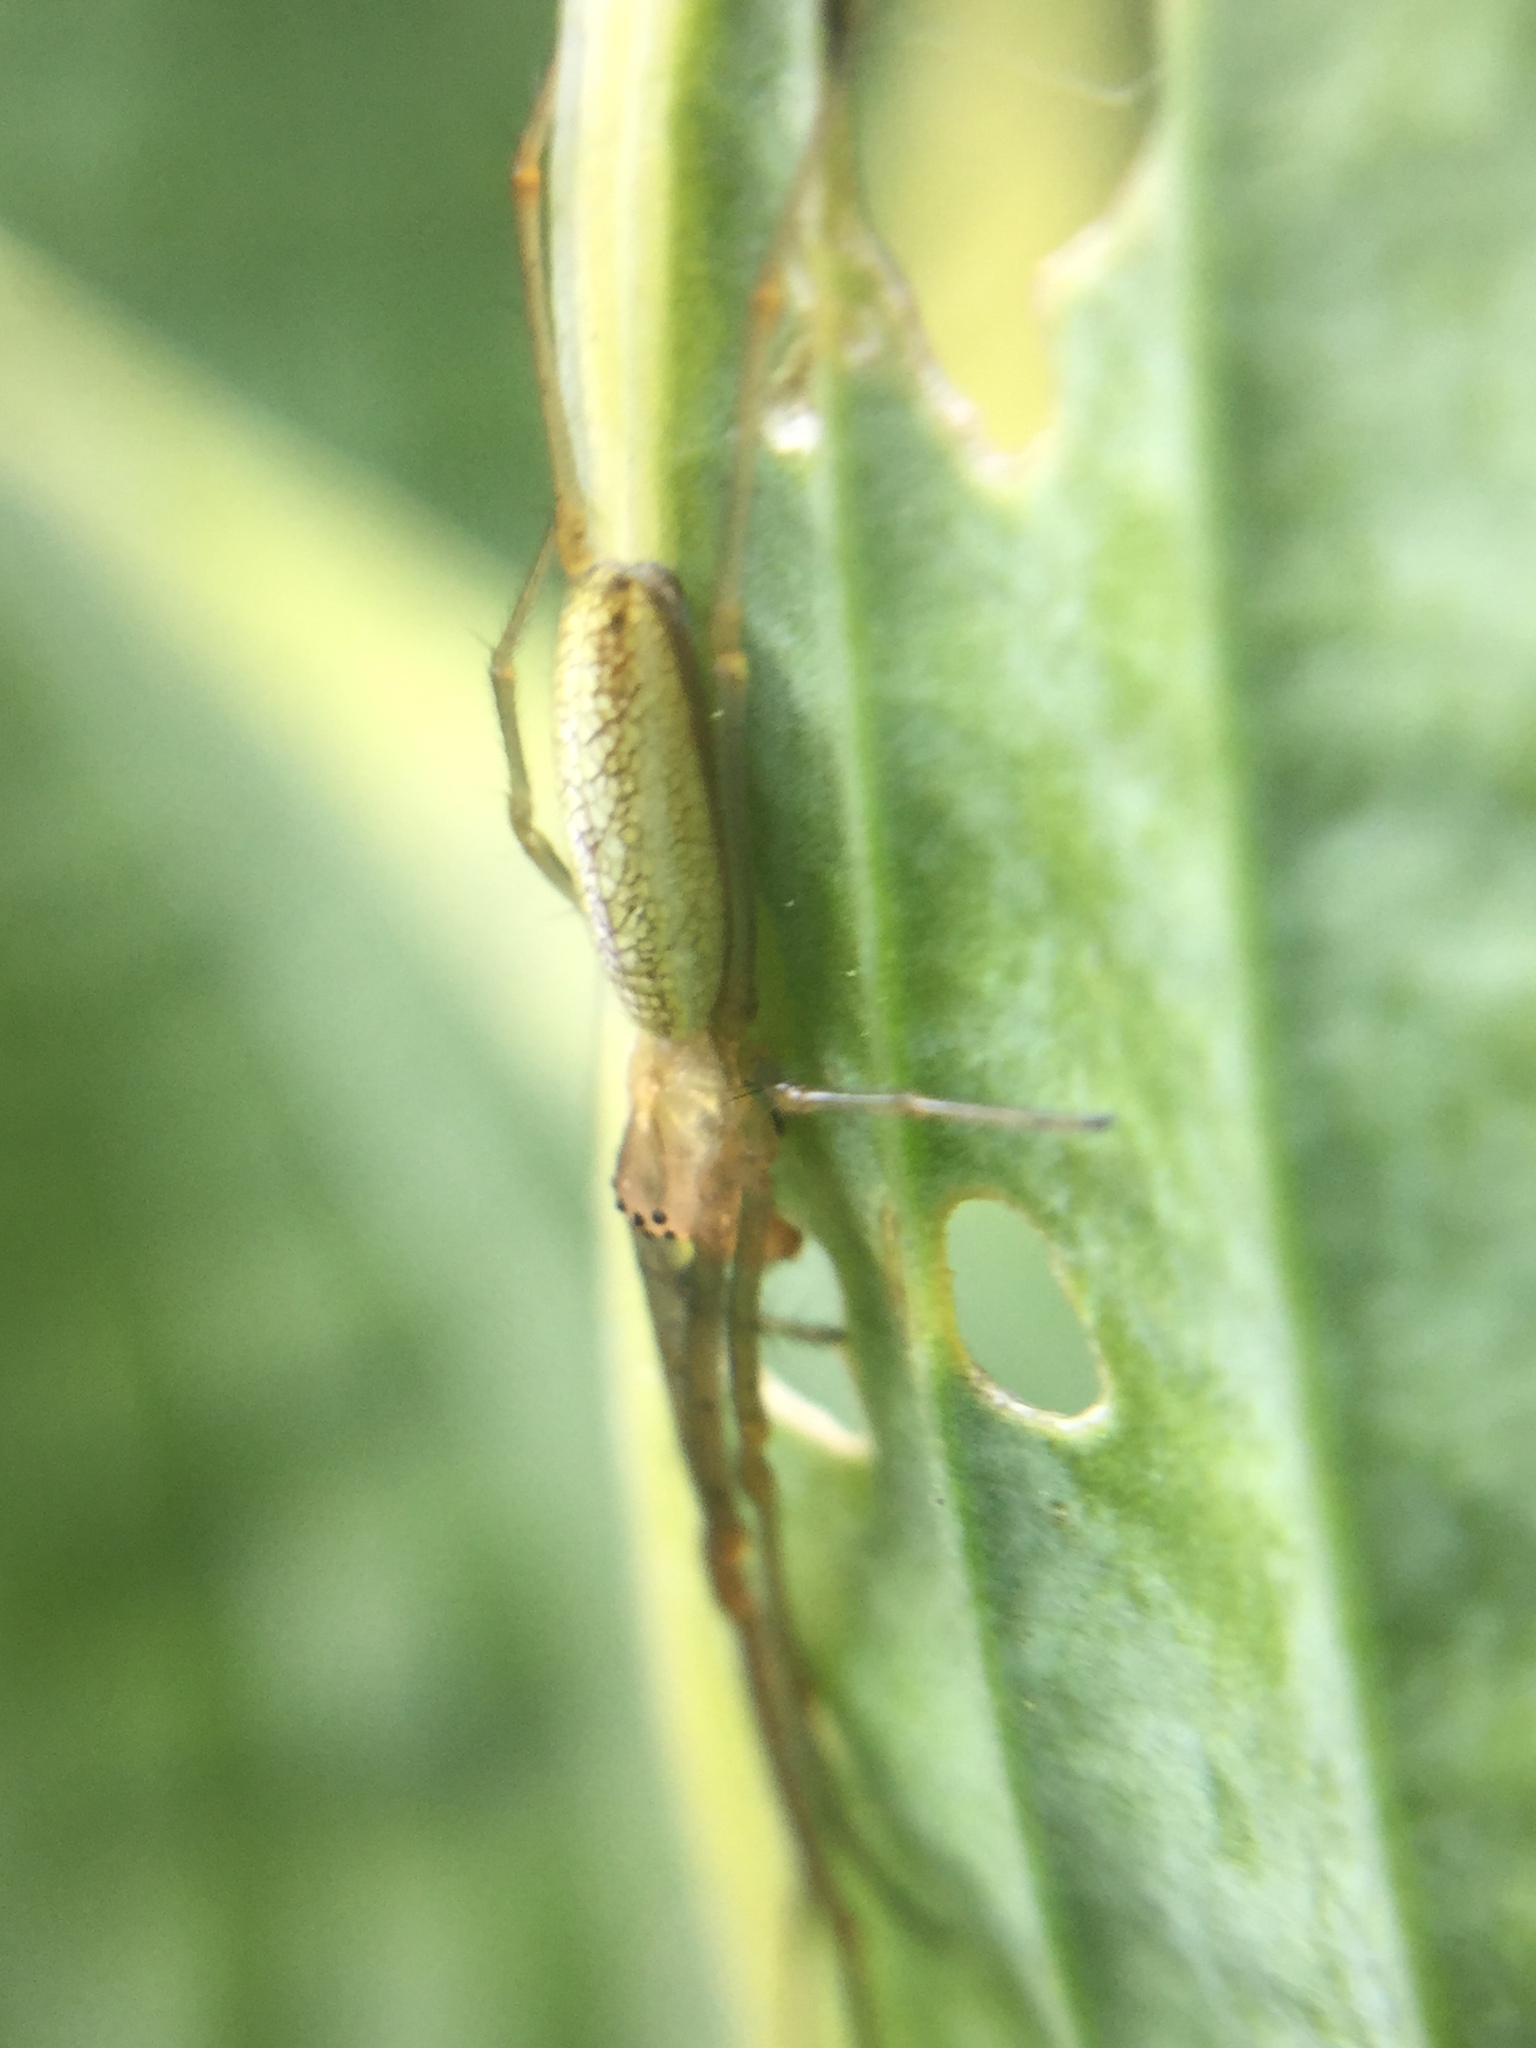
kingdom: Animalia
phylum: Arthropoda
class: Arachnida
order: Araneae
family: Tetragnathidae
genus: Tetragnatha
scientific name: Tetragnatha laboriosa
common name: Longjawed orb weavers
